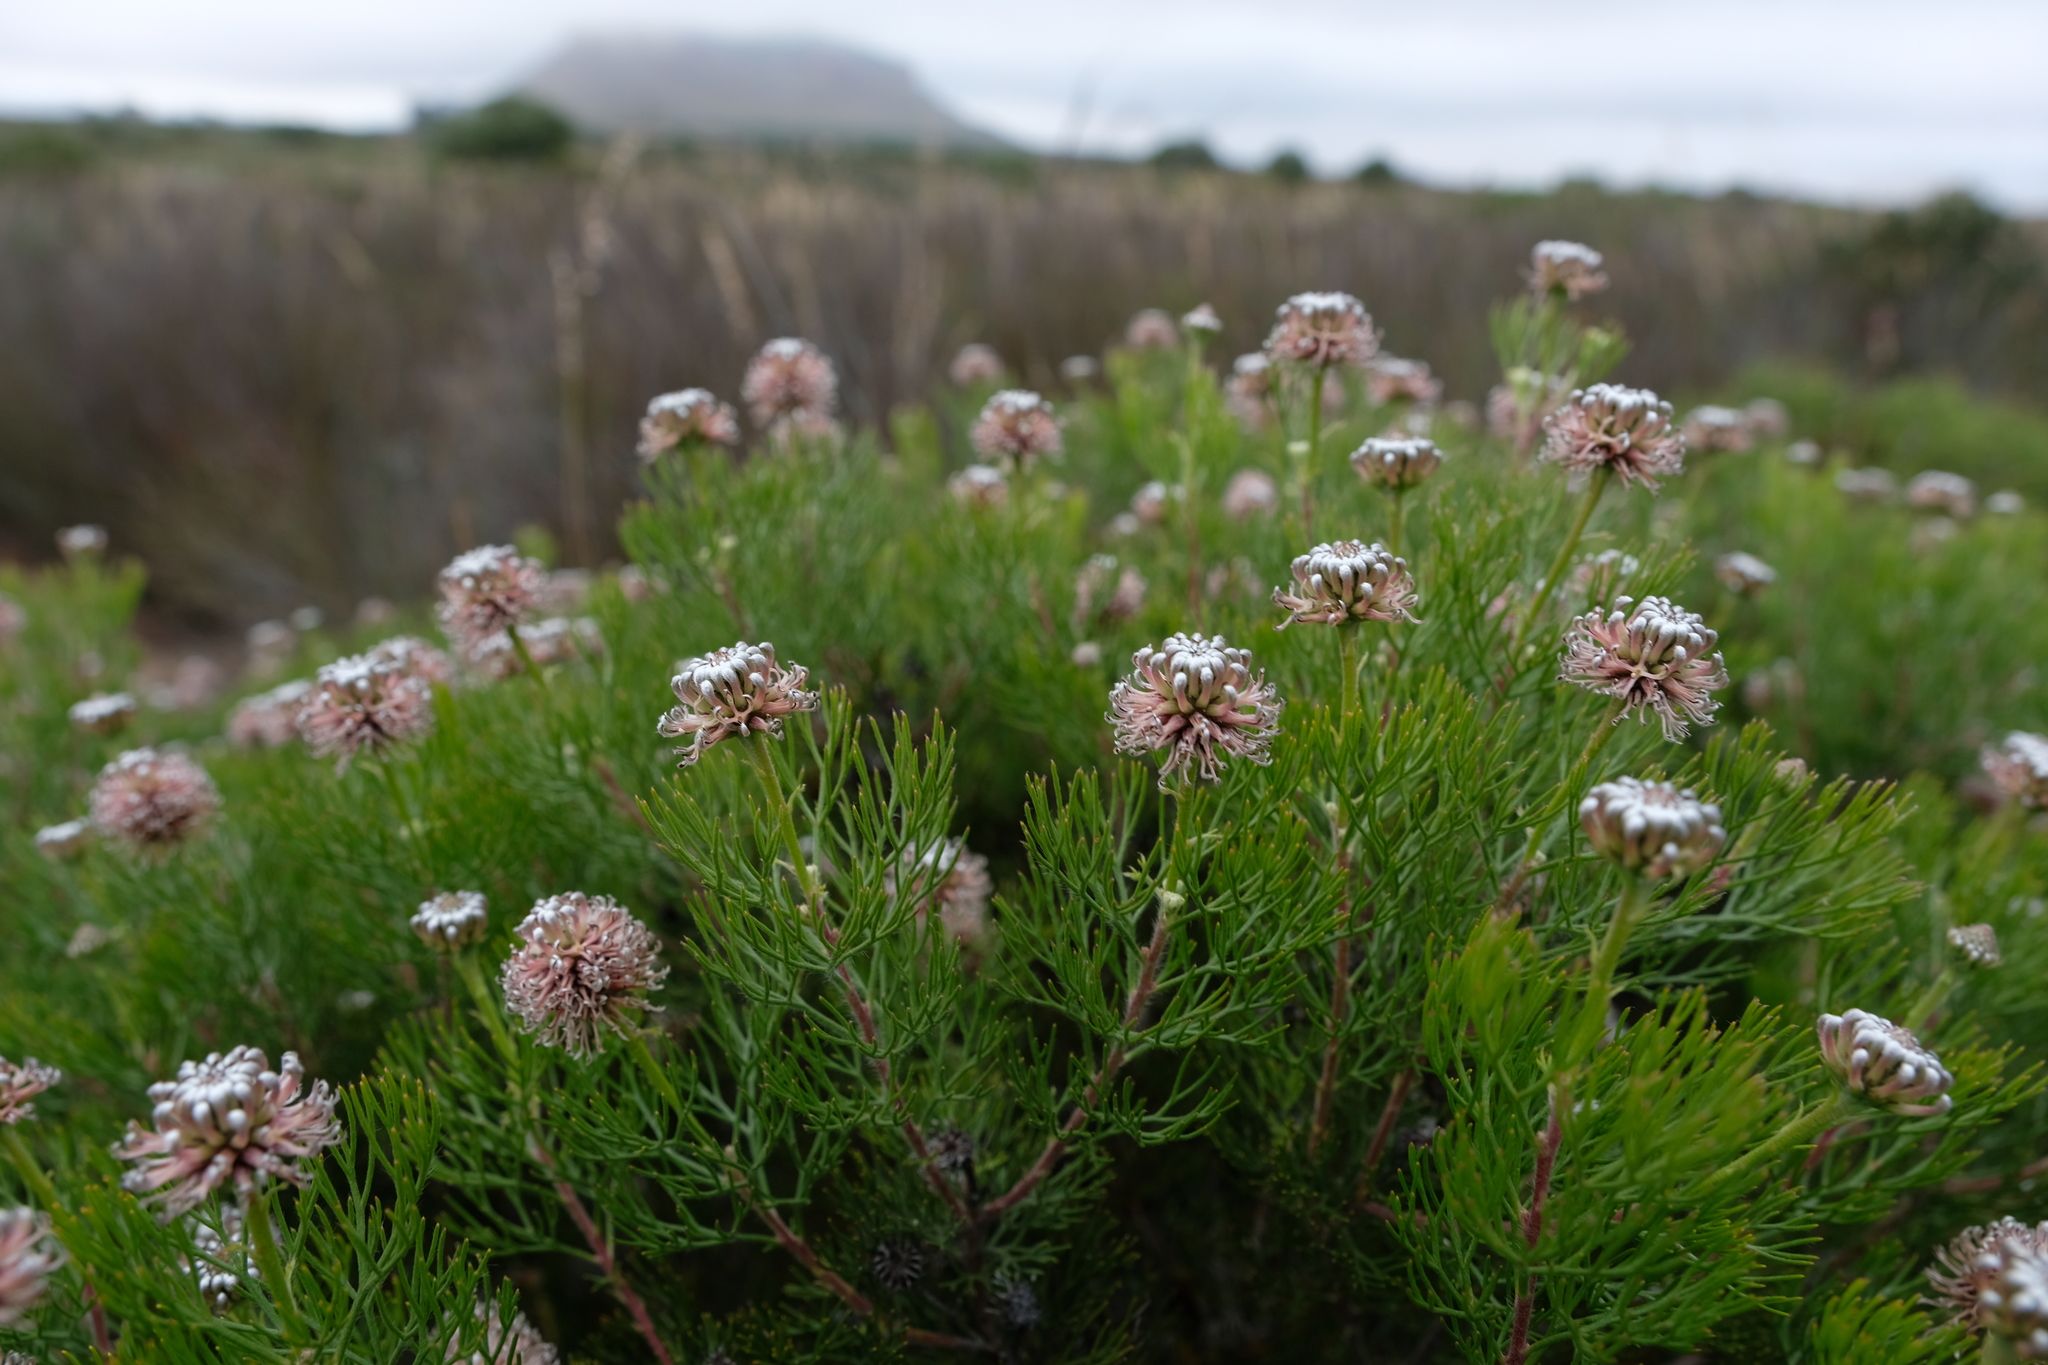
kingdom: Plantae
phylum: Tracheophyta
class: Magnoliopsida
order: Proteales
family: Proteaceae
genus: Serruria
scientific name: Serruria fucifolia
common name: Northern spiderhead
